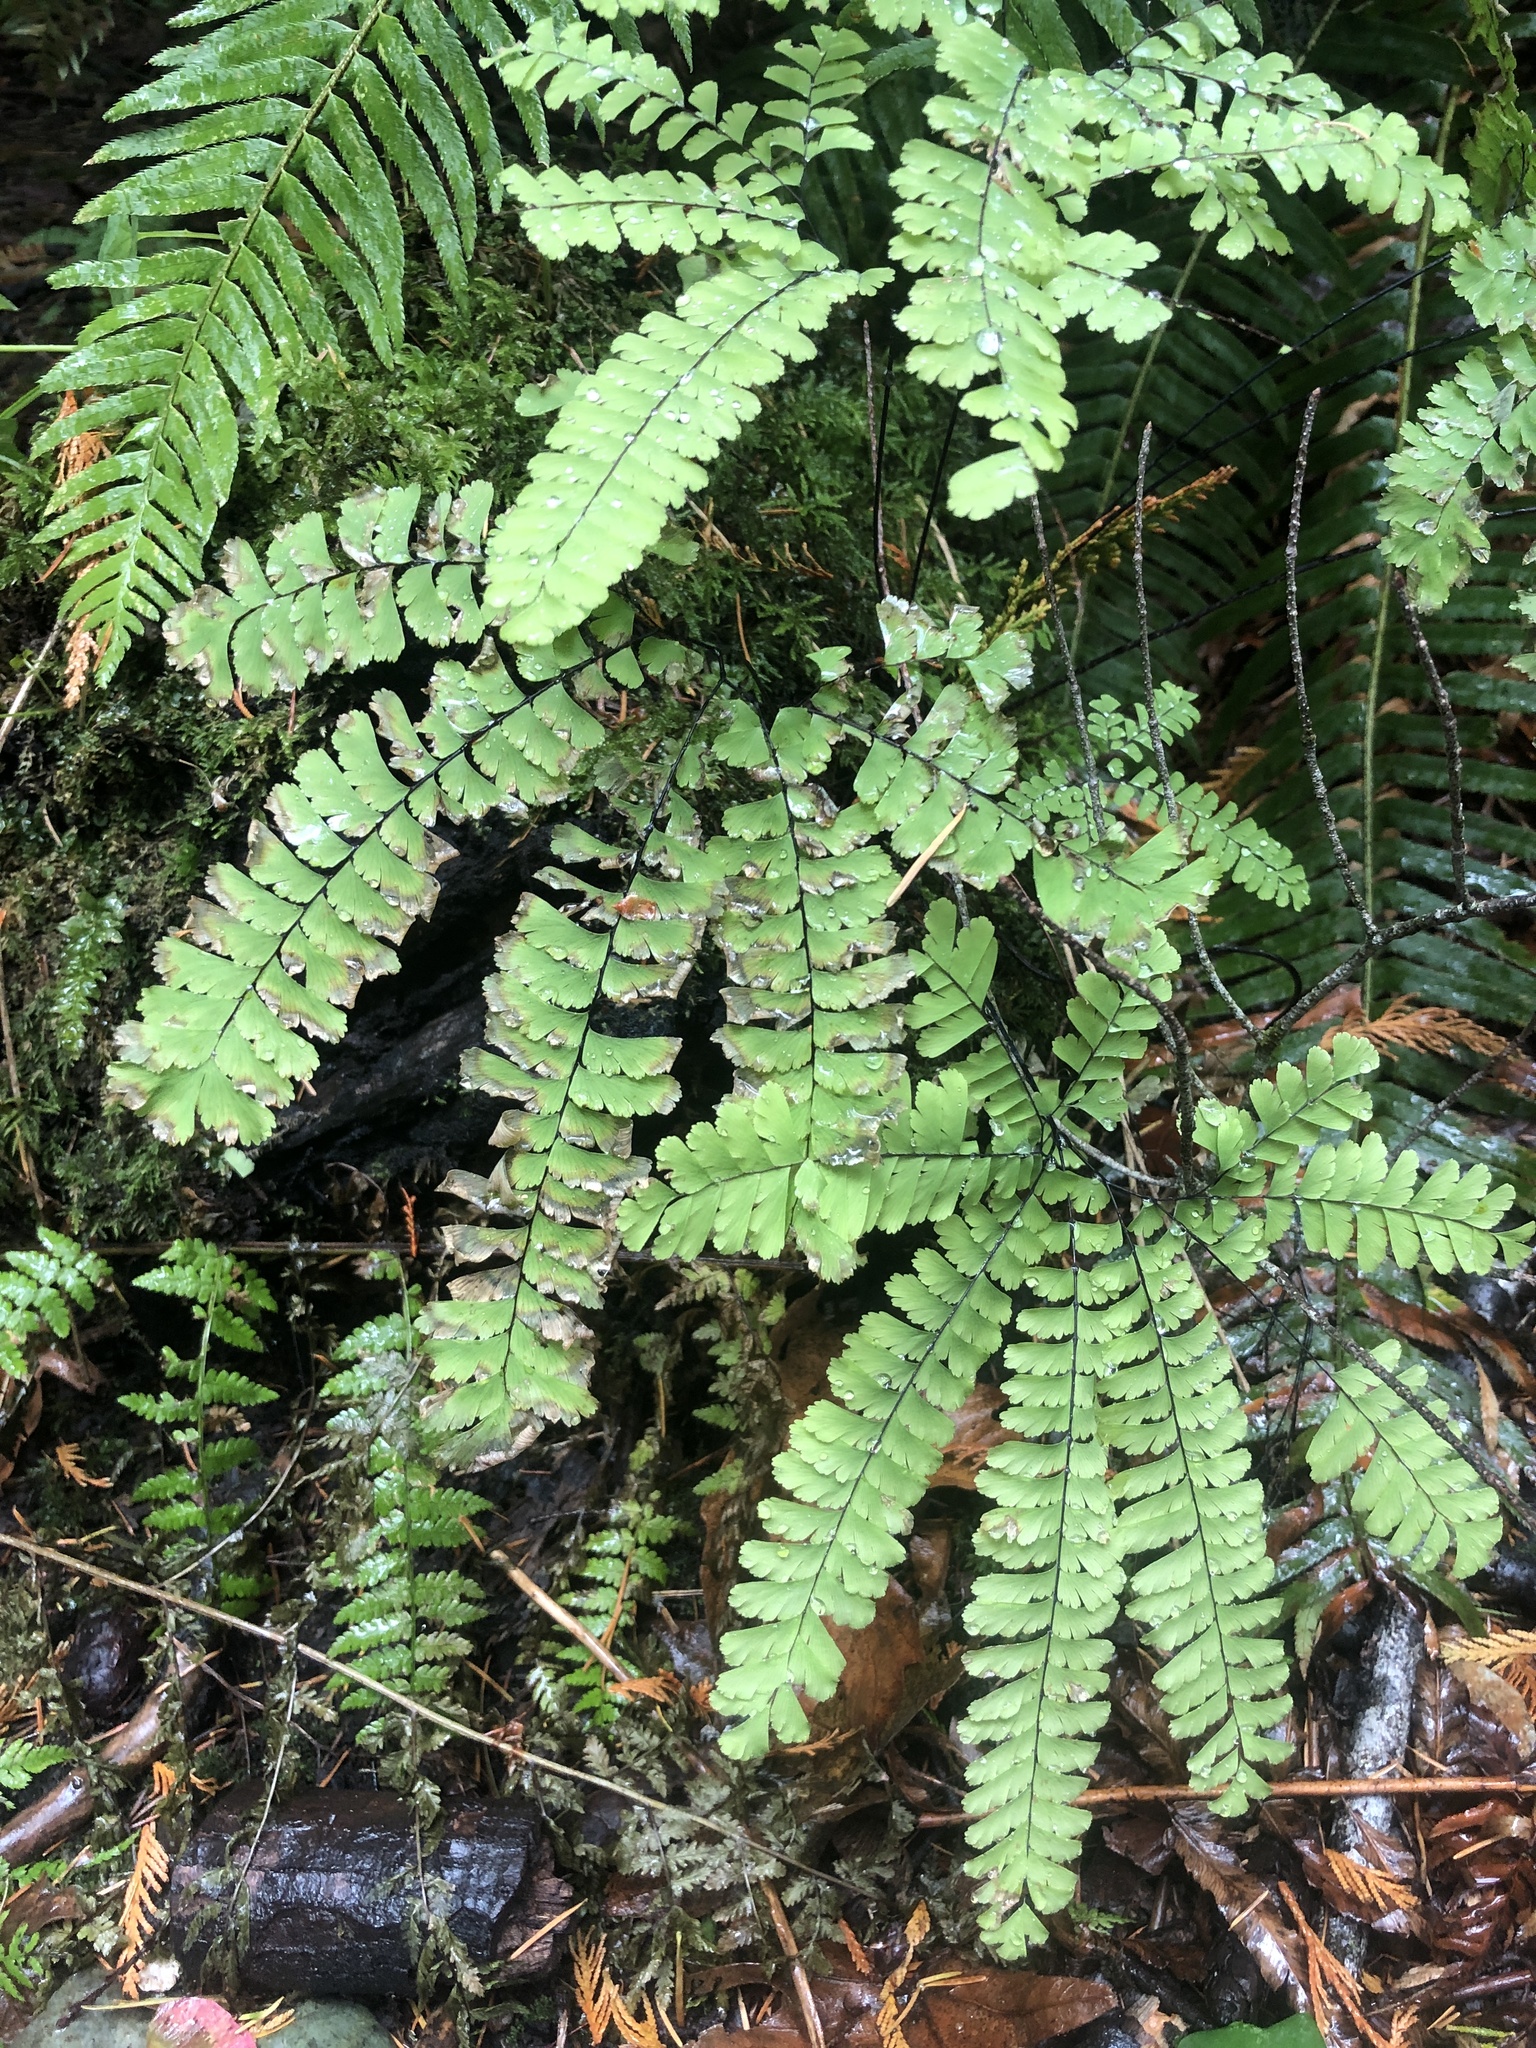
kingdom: Plantae
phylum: Tracheophyta
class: Polypodiopsida
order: Polypodiales
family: Pteridaceae
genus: Adiantum
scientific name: Adiantum aleuticum
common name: Aleutian maidenhair fern
